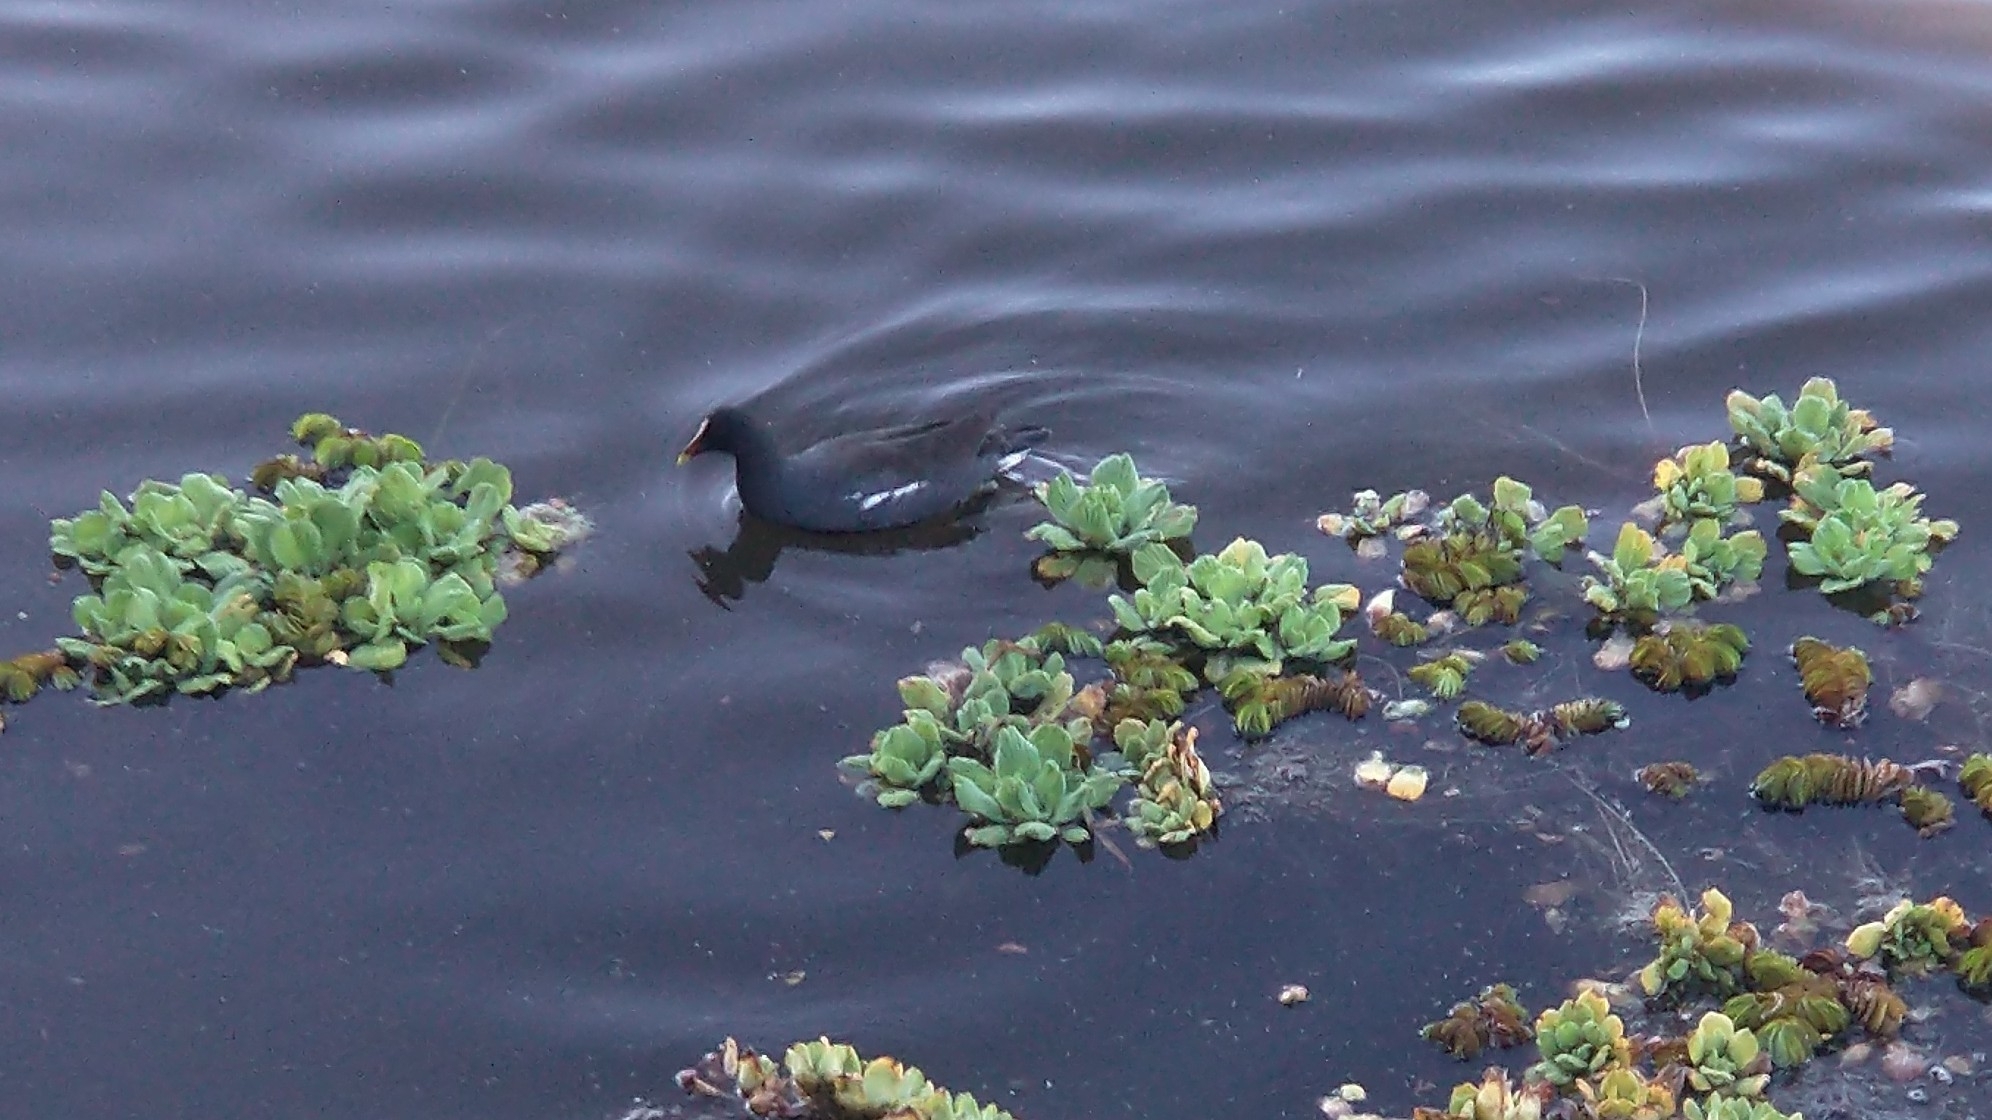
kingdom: Animalia
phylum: Chordata
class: Aves
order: Gruiformes
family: Rallidae
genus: Gallinula
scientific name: Gallinula chloropus
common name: Common moorhen
